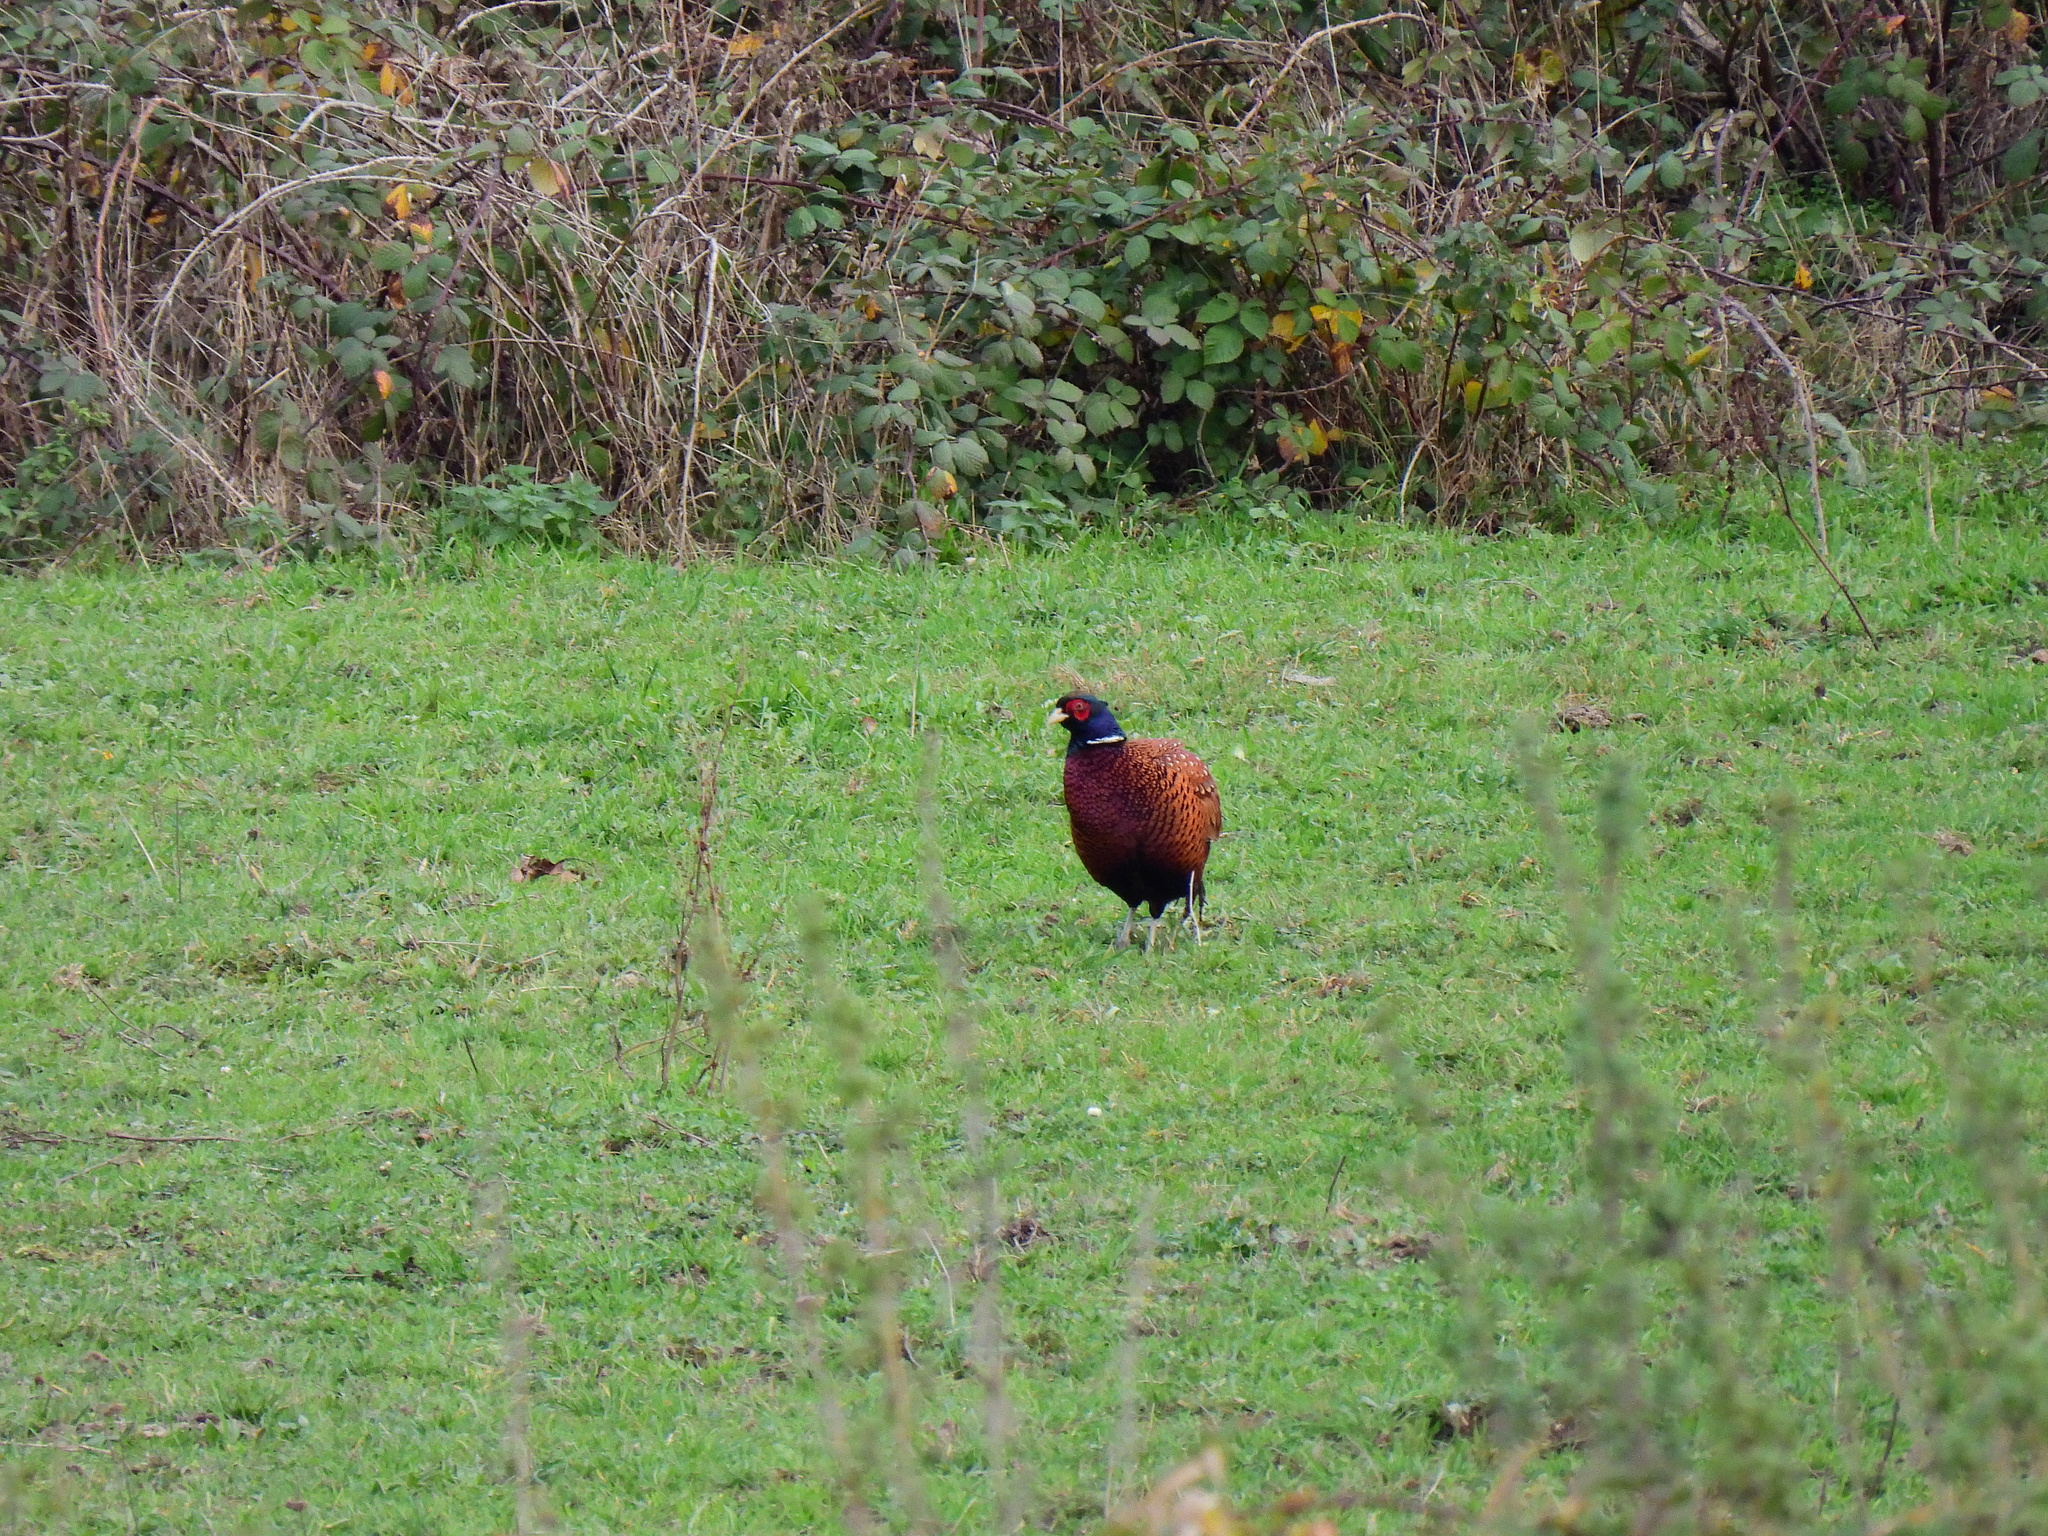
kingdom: Animalia
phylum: Chordata
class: Aves
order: Galliformes
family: Phasianidae
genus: Phasianus
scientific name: Phasianus colchicus
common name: Common pheasant
